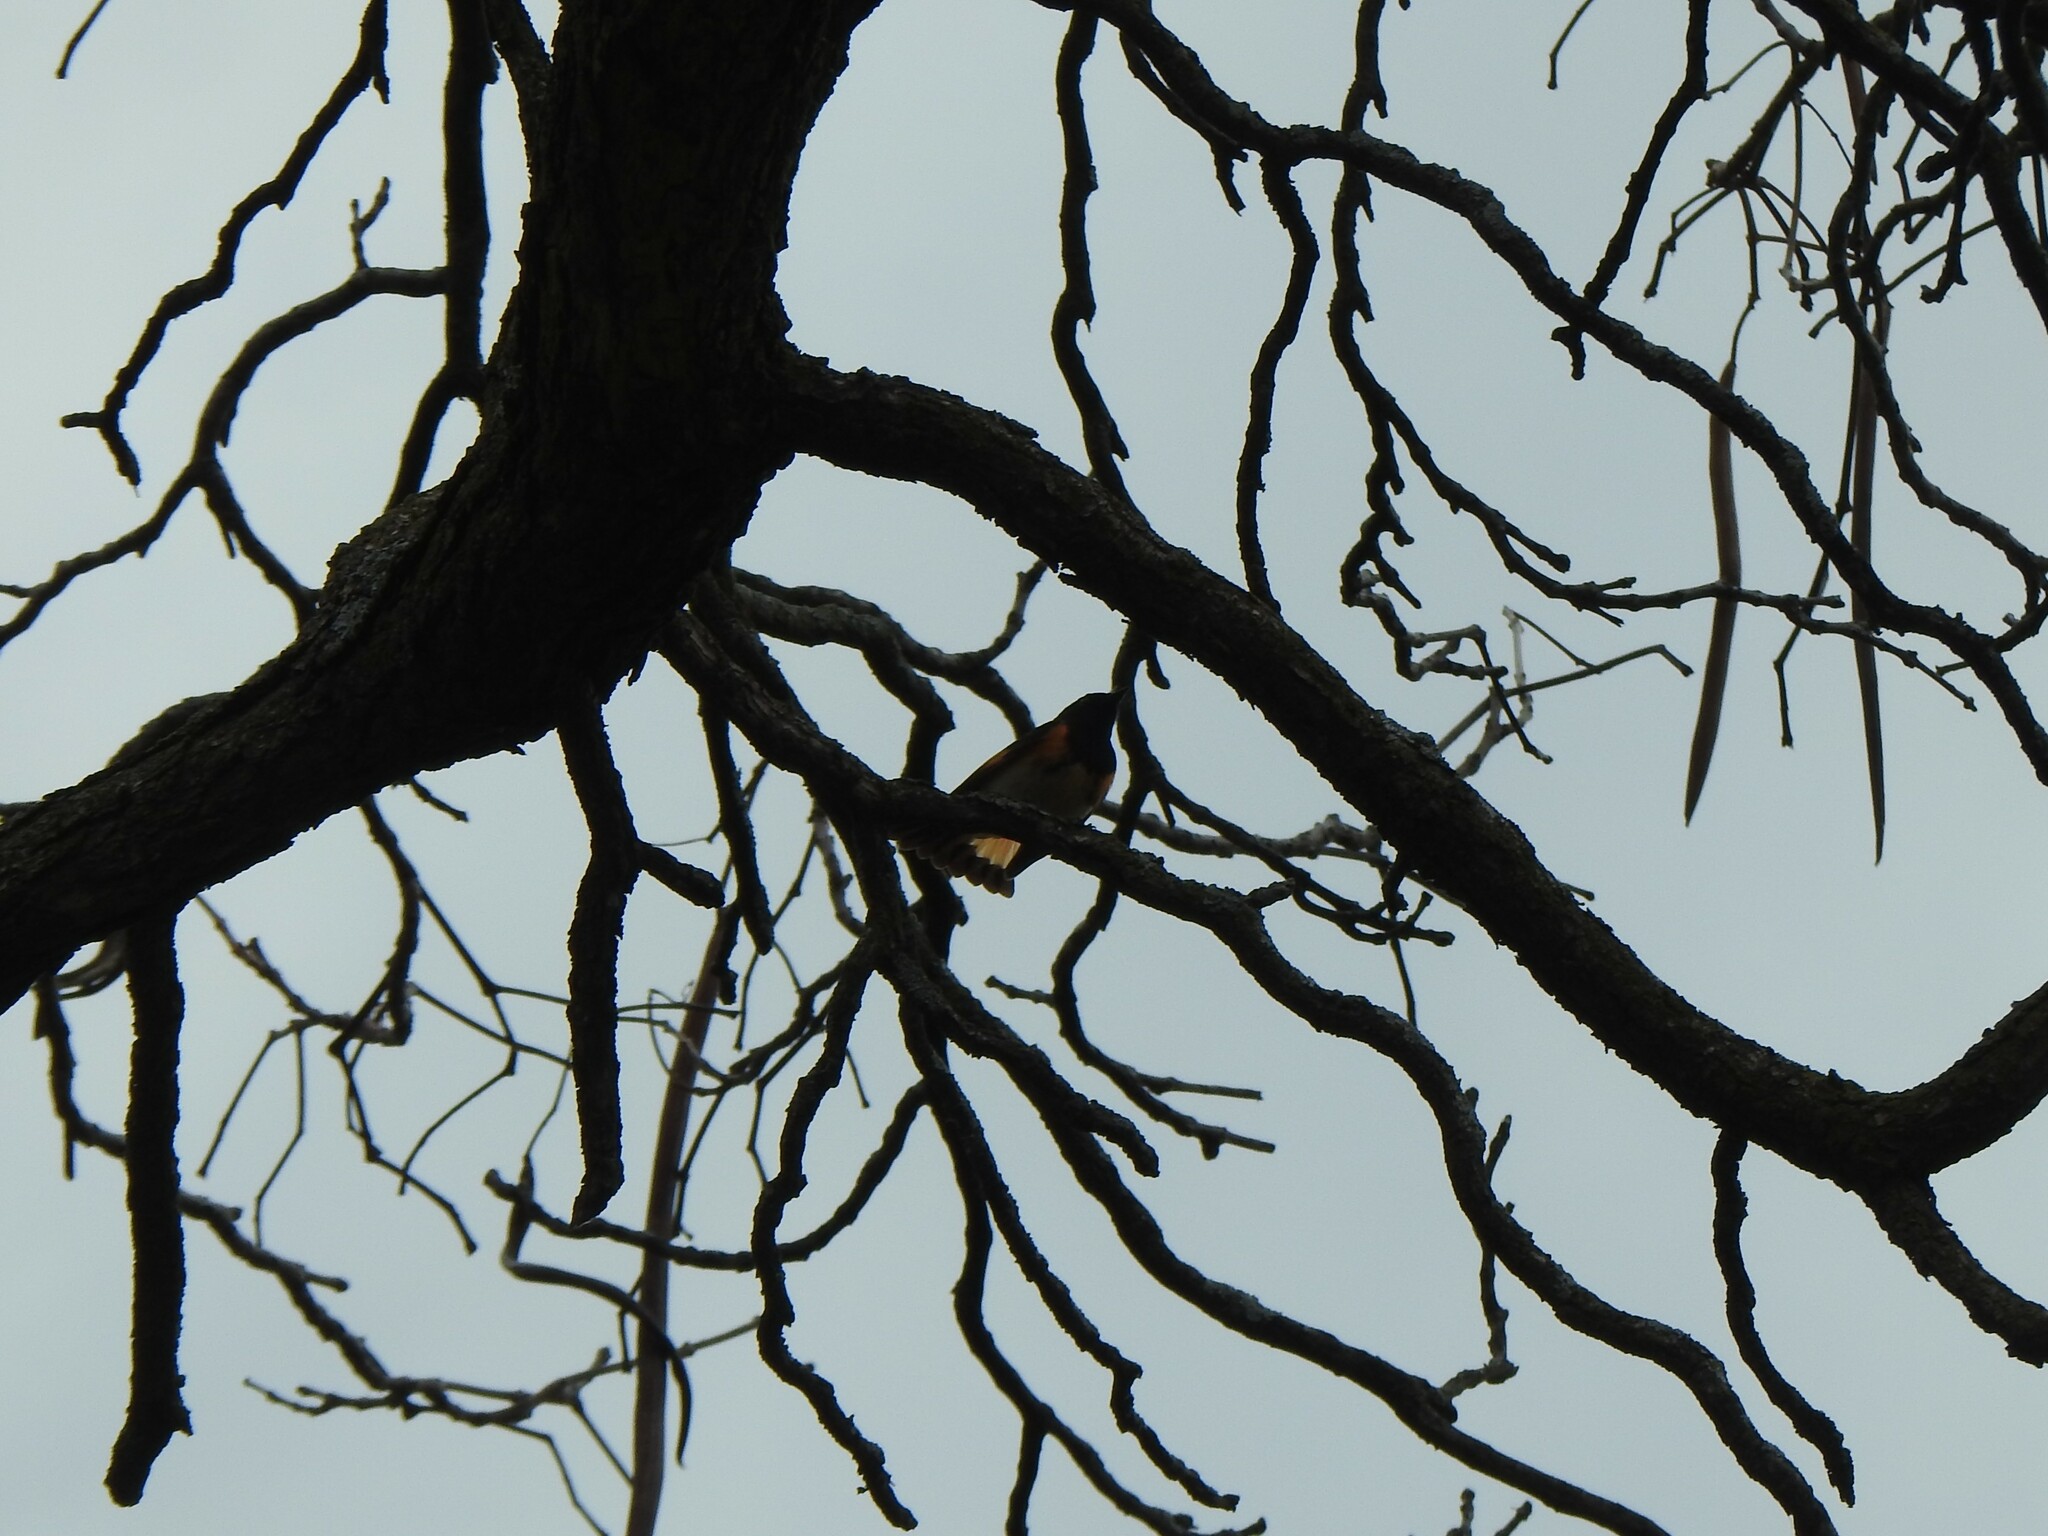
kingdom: Animalia
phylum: Chordata
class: Aves
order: Passeriformes
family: Parulidae
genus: Setophaga
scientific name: Setophaga ruticilla
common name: American redstart
